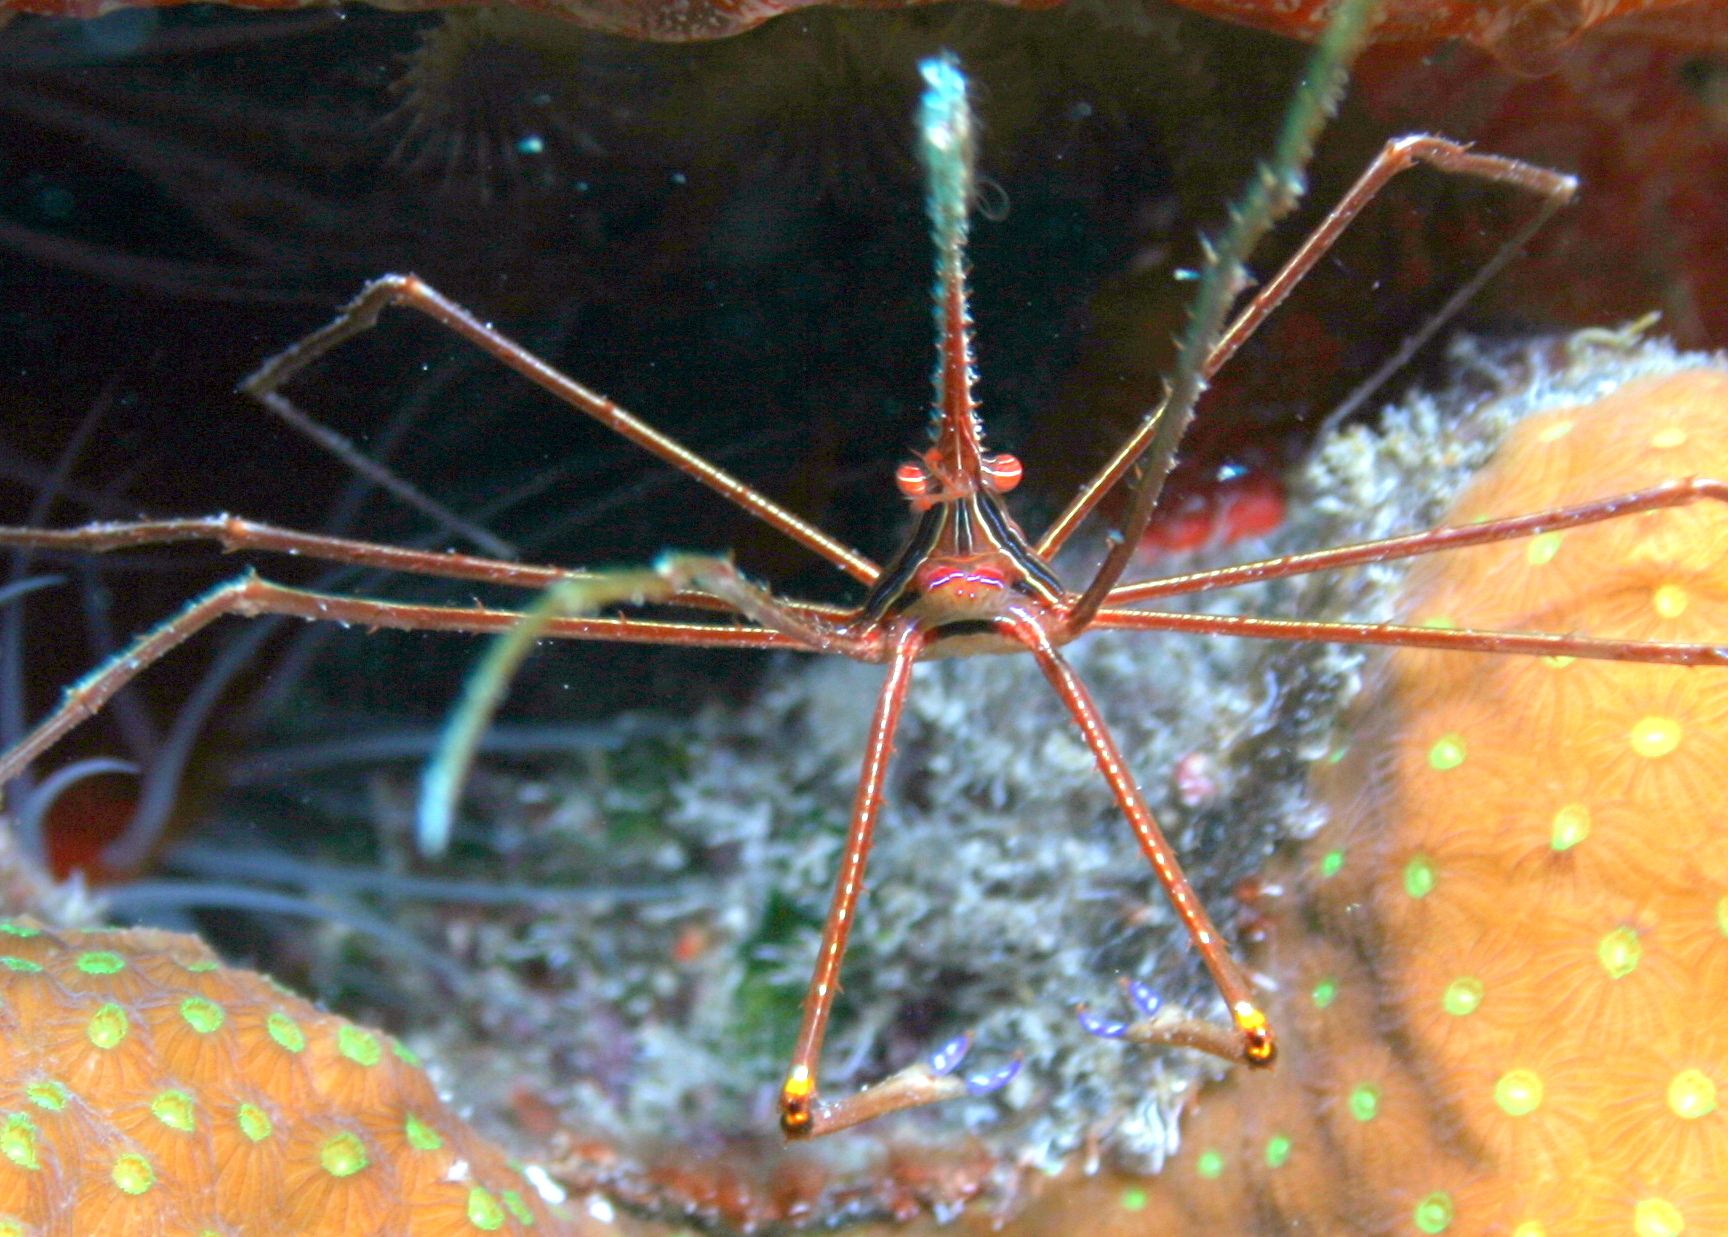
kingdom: Animalia
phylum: Arthropoda
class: Malacostraca
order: Decapoda
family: Inachoididae
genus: Stenorhynchus
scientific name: Stenorhynchus seticornis
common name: Arrow crab
